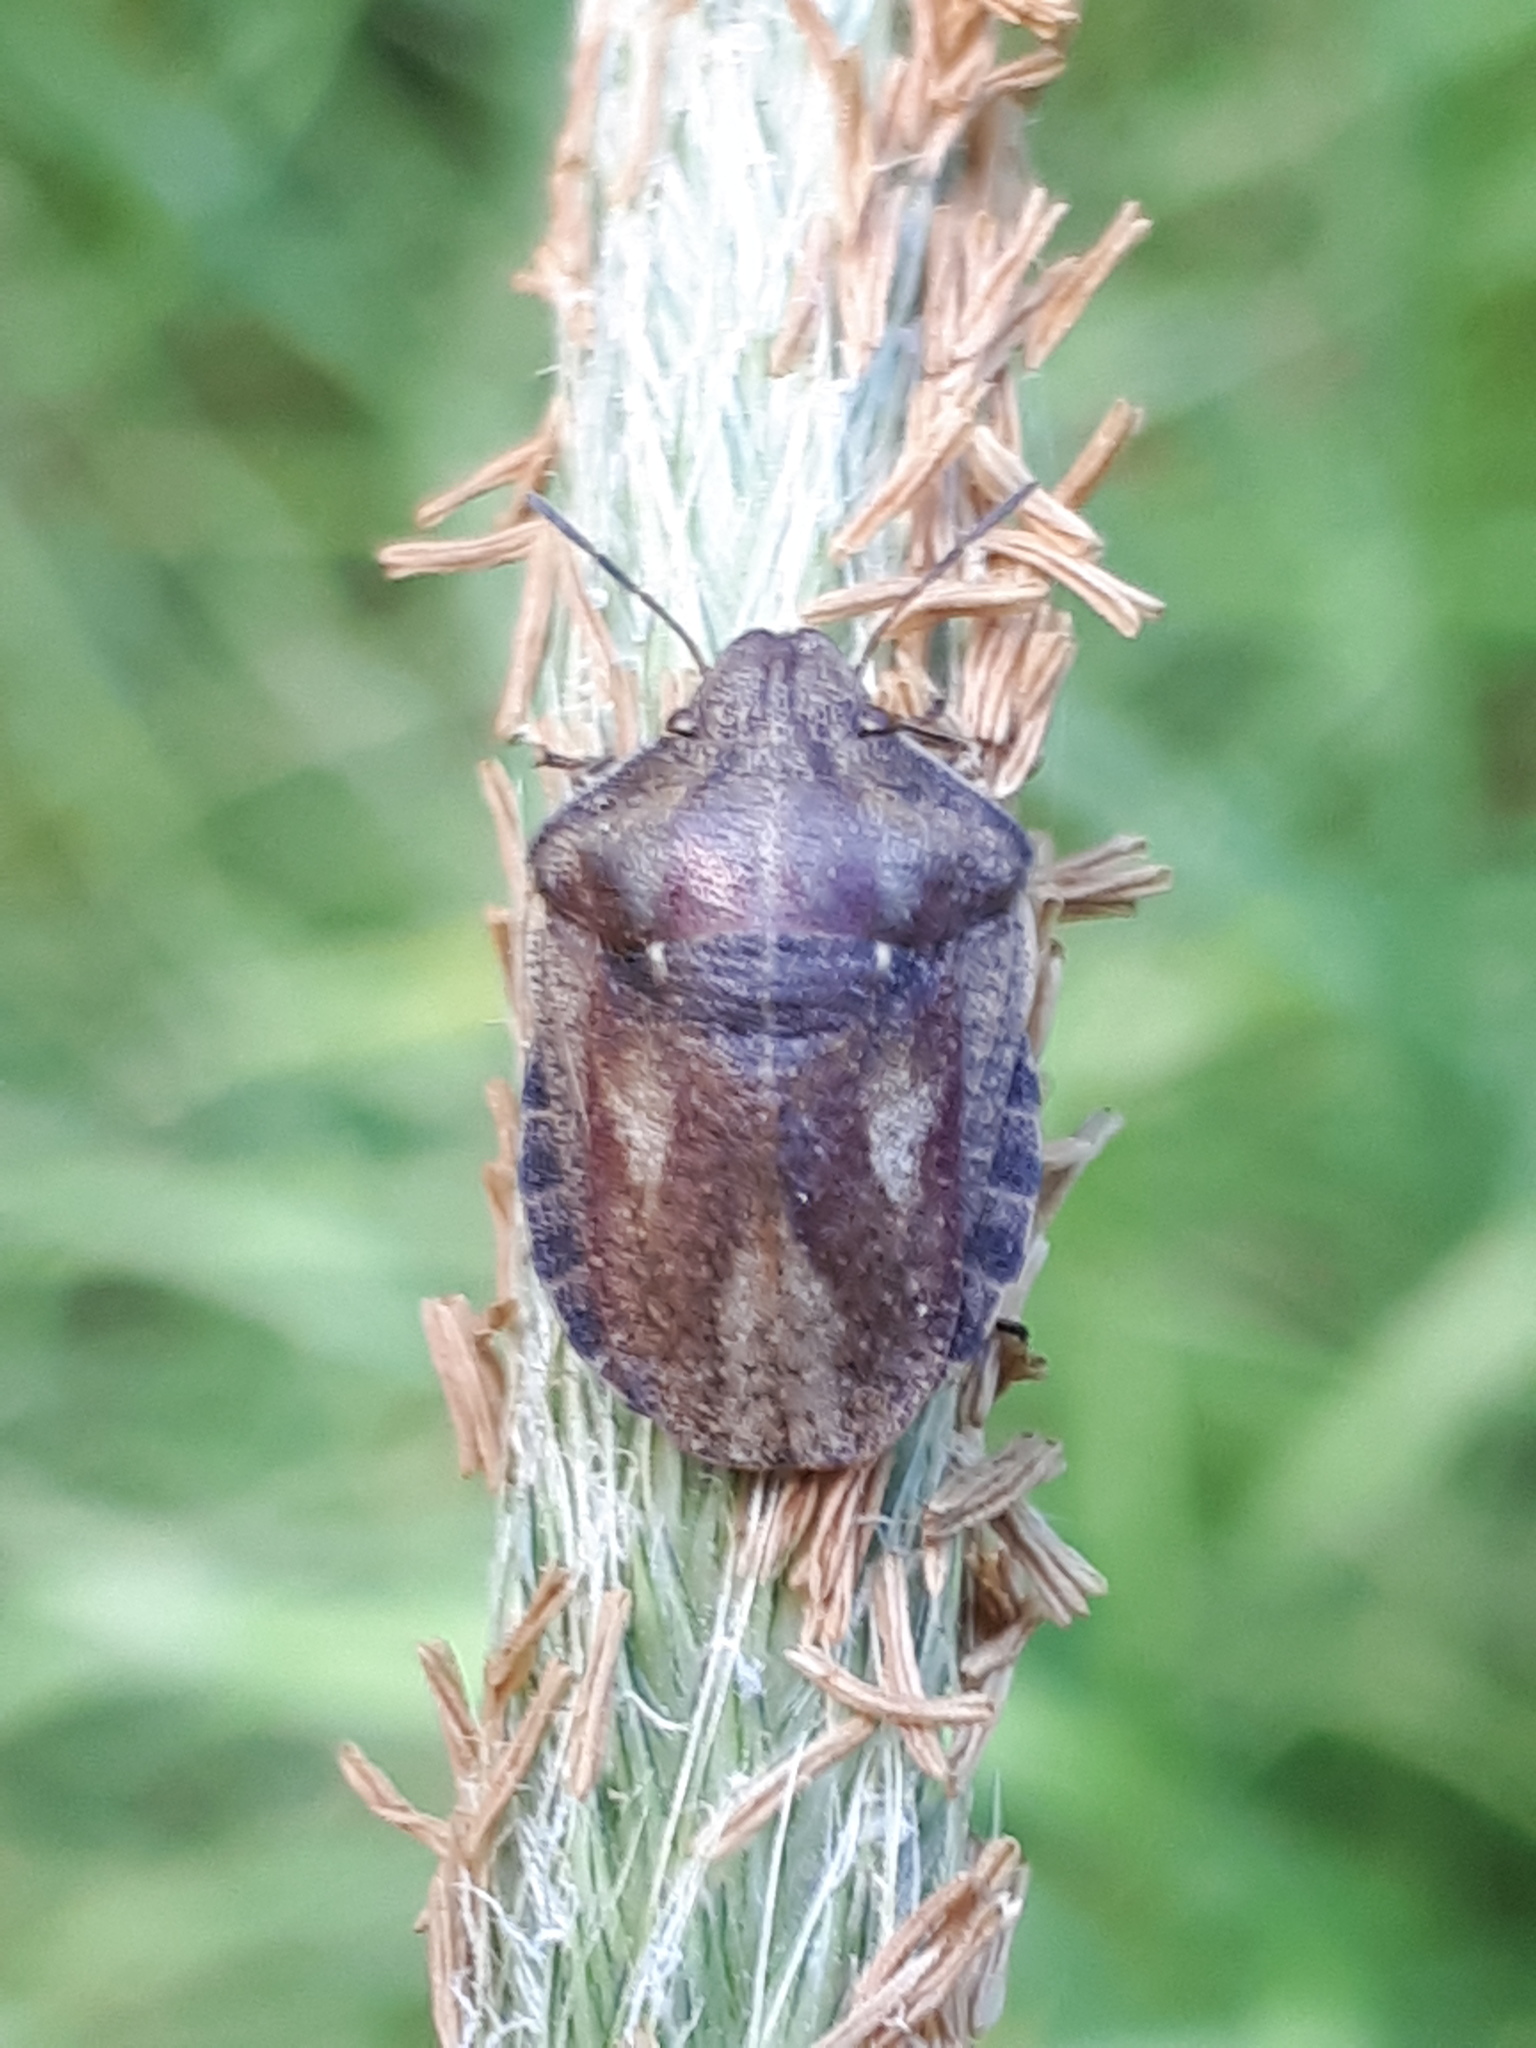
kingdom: Animalia
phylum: Arthropoda
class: Insecta
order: Hemiptera
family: Scutelleridae
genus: Eurygaster
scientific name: Eurygaster testudinaria
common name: Tortoise bug
